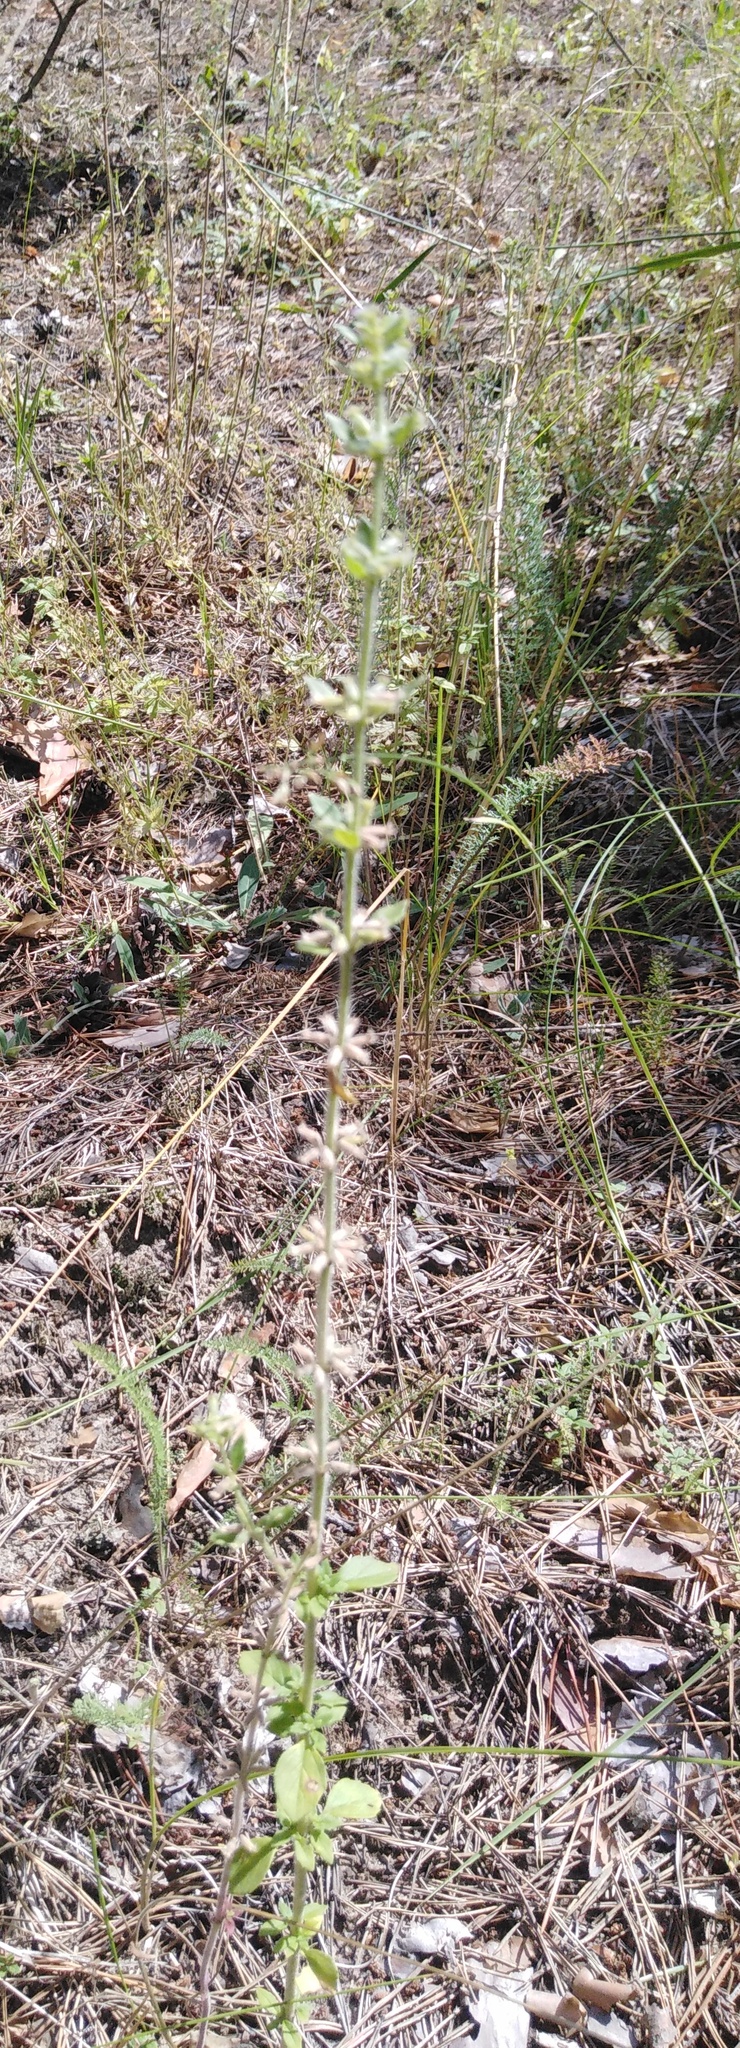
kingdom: Plantae
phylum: Tracheophyta
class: Magnoliopsida
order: Lamiales
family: Lamiaceae
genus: Clinopodium
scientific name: Clinopodium acinos
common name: Basil thyme
